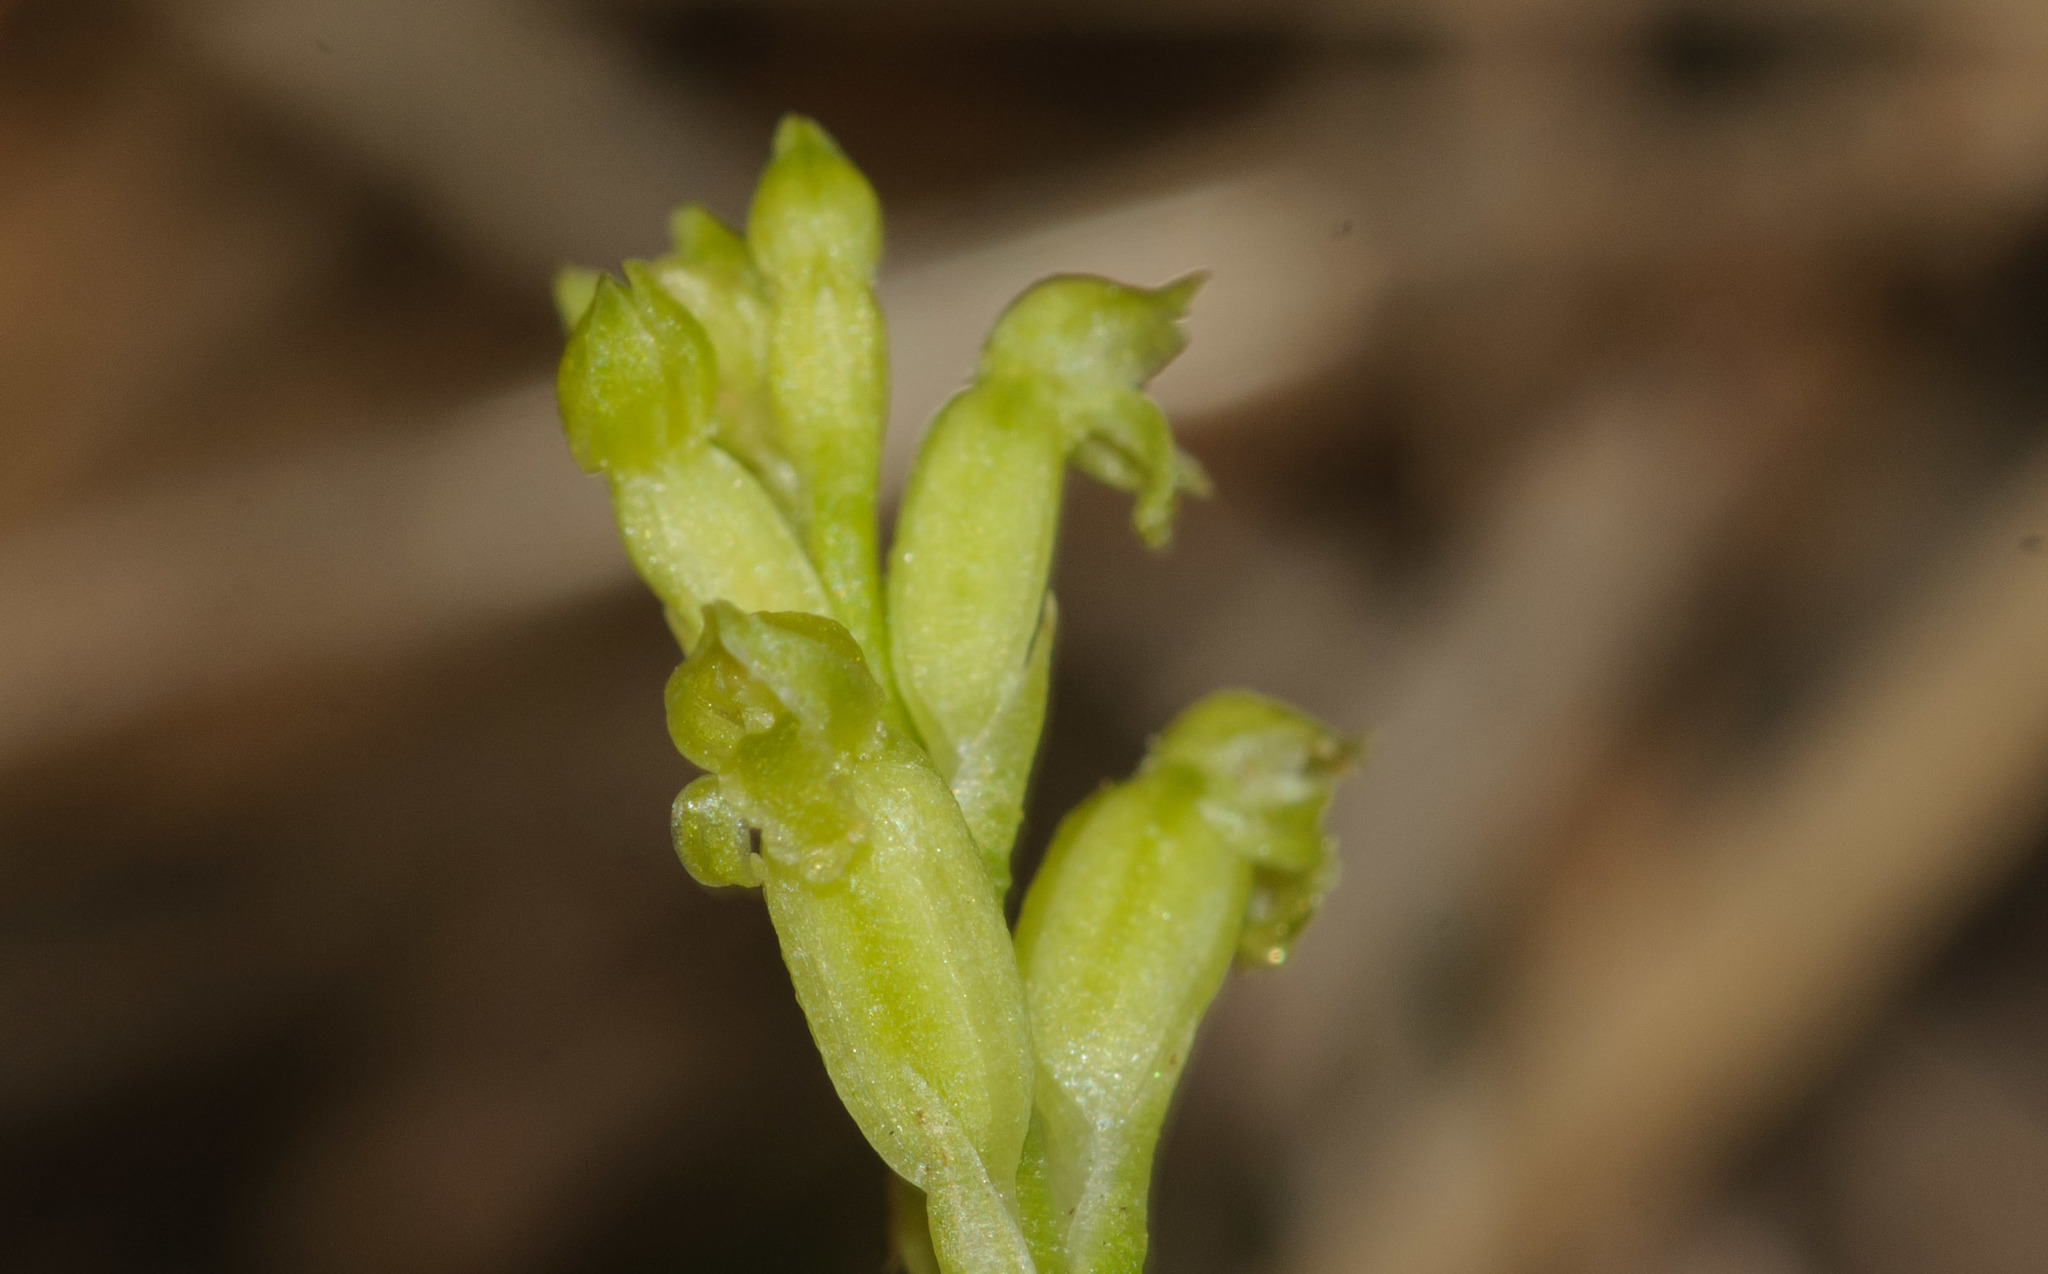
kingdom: Plantae
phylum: Tracheophyta
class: Liliopsida
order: Asparagales
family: Orchidaceae
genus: Microtis
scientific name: Microtis unifolia
